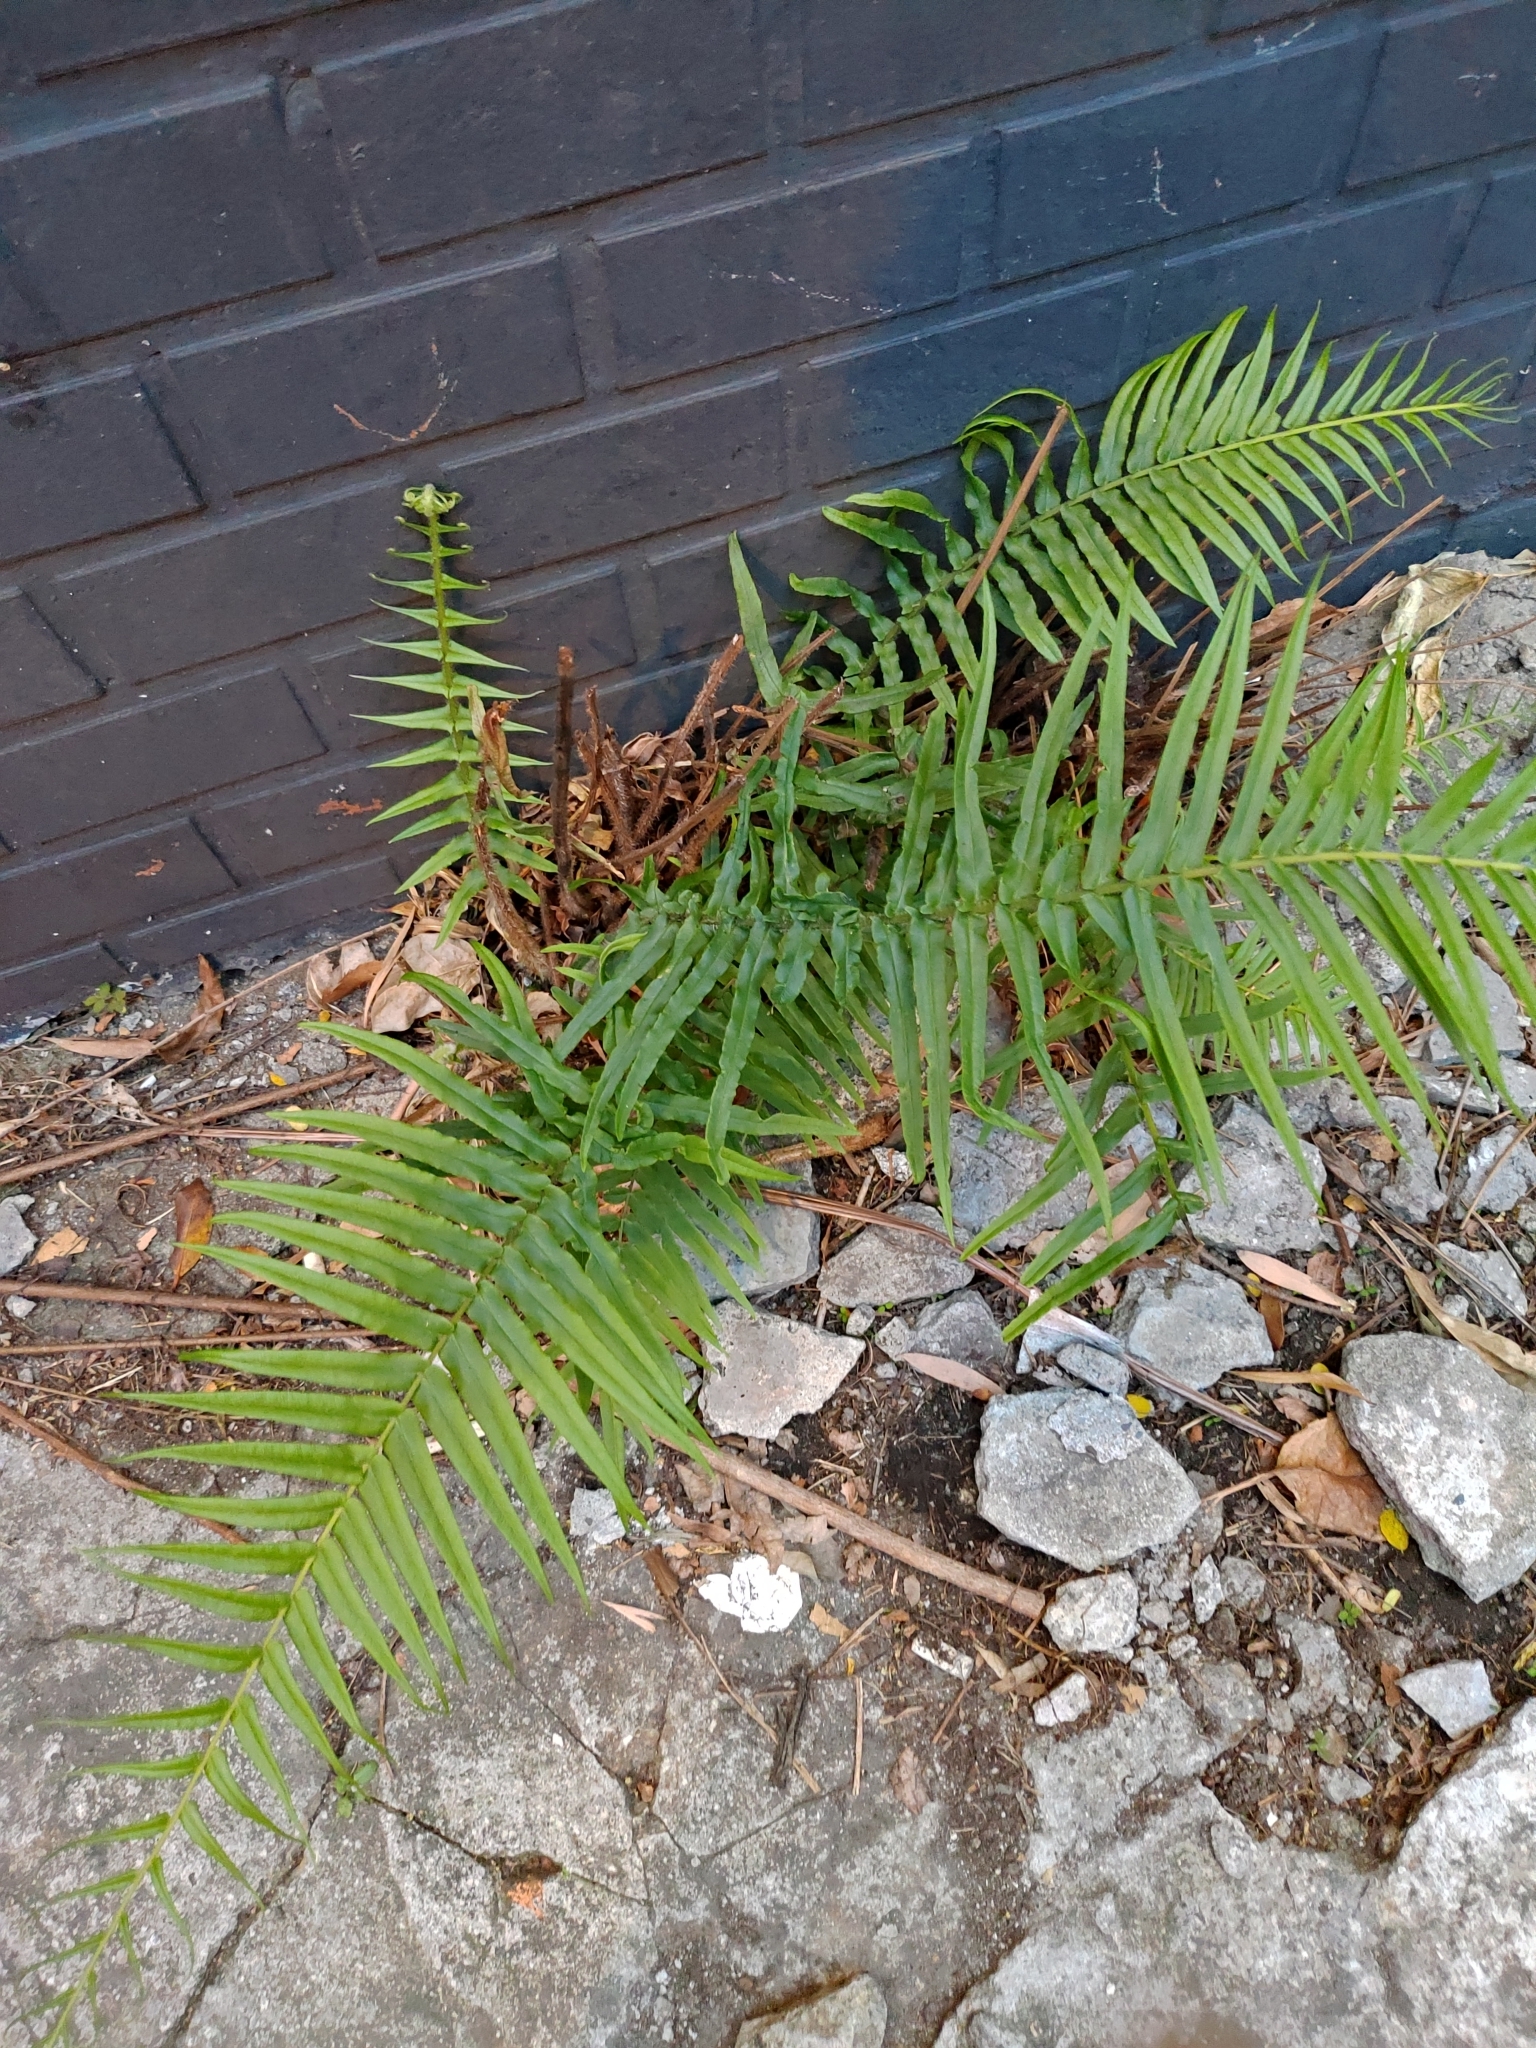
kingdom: Plantae
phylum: Tracheophyta
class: Polypodiopsida
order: Polypodiales
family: Pteridaceae
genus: Pteris
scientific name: Pteris vittata
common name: Ladder brake
